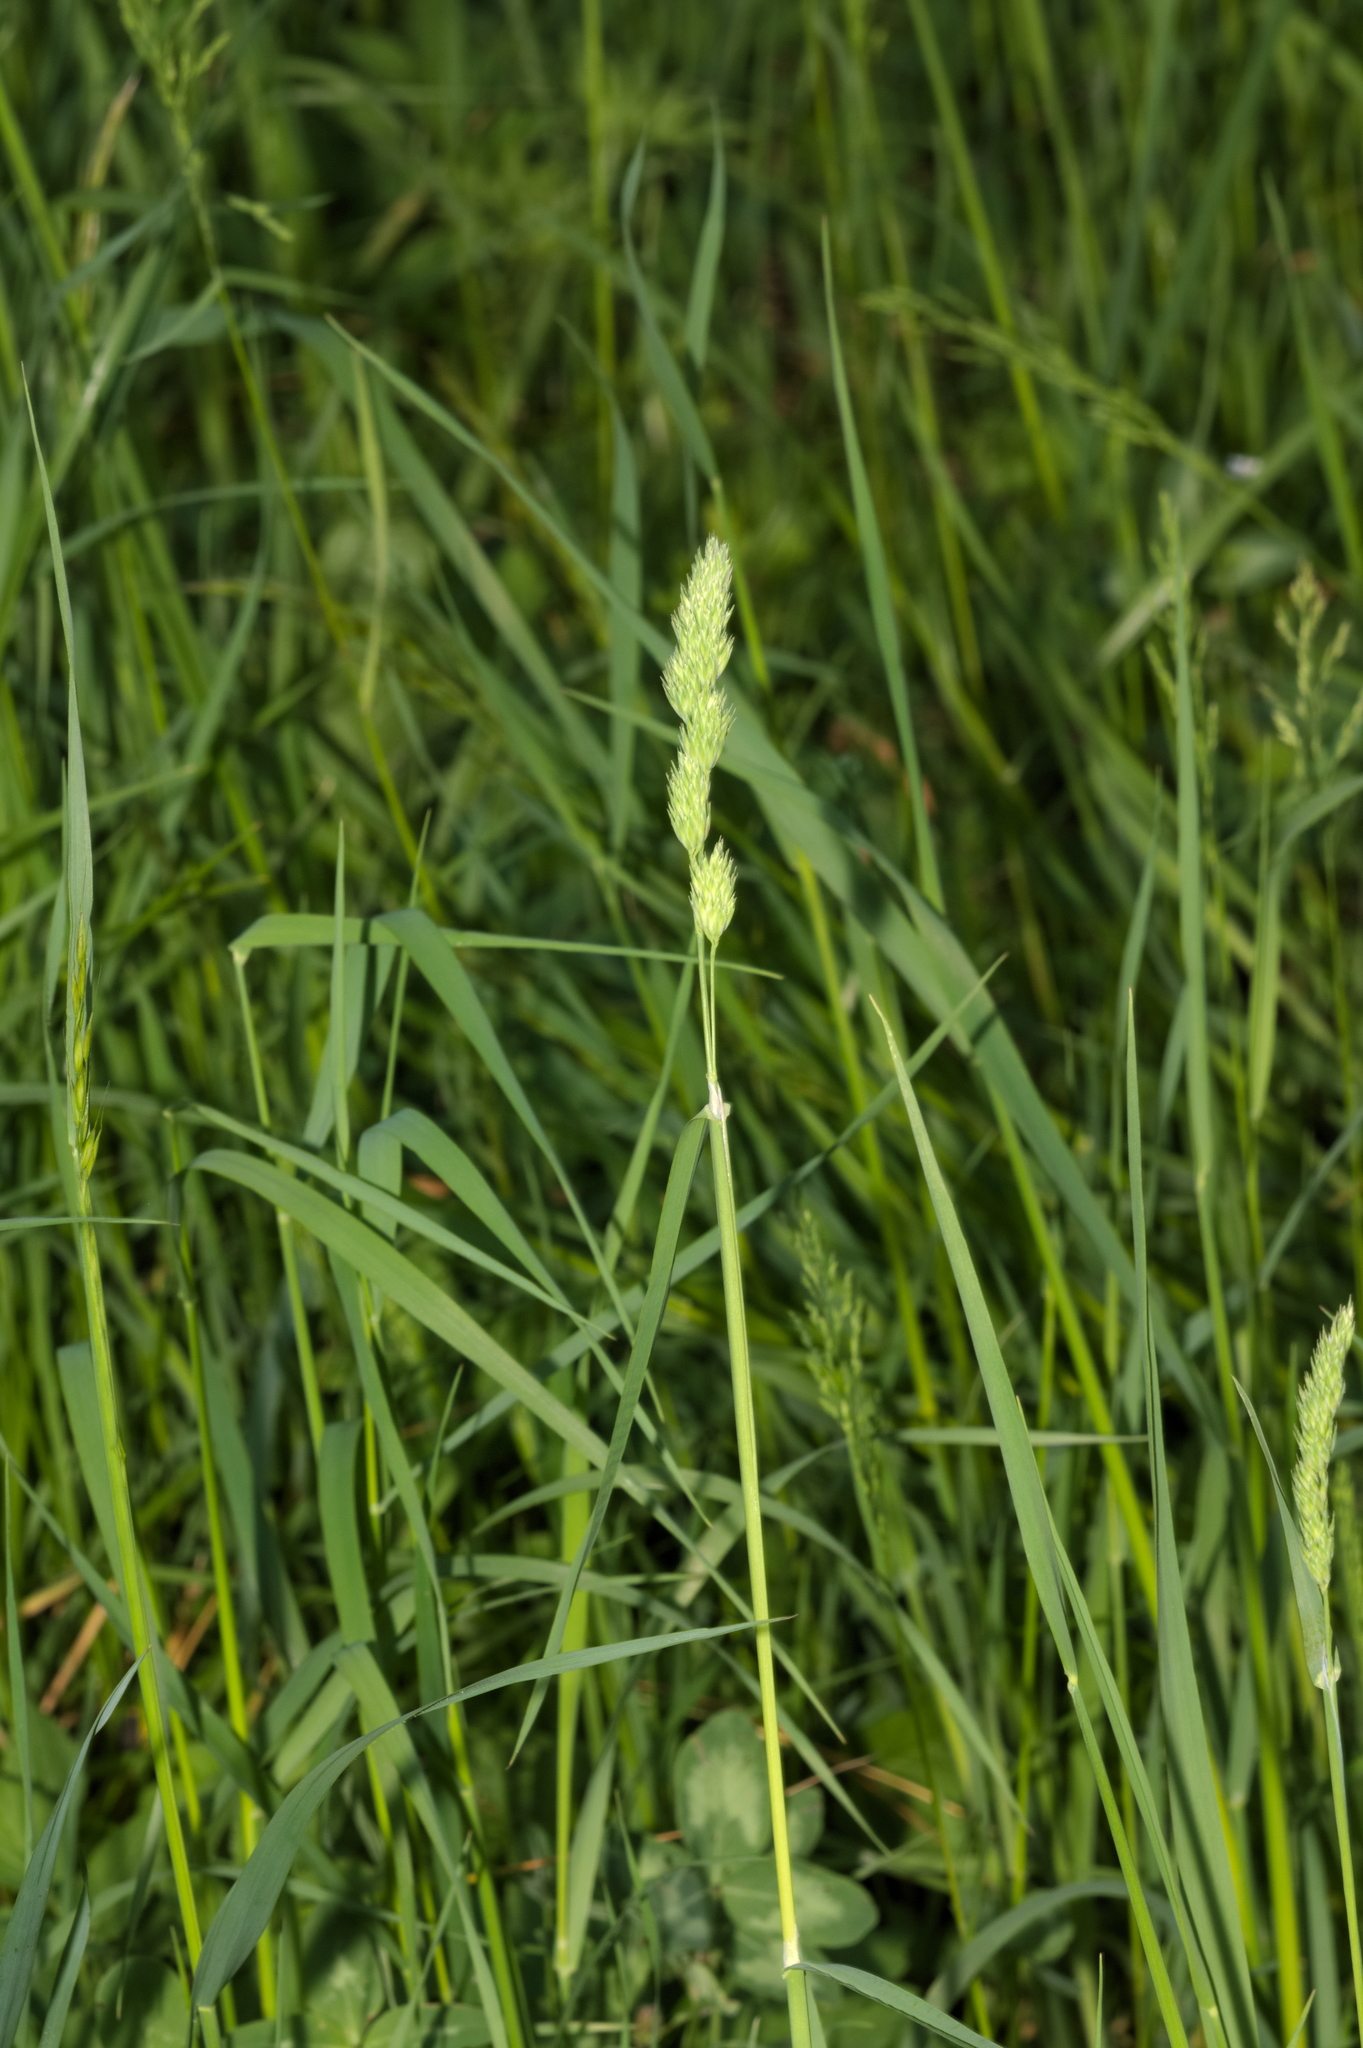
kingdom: Plantae
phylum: Tracheophyta
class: Liliopsida
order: Poales
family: Poaceae
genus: Dactylis
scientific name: Dactylis glomerata
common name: Orchardgrass
